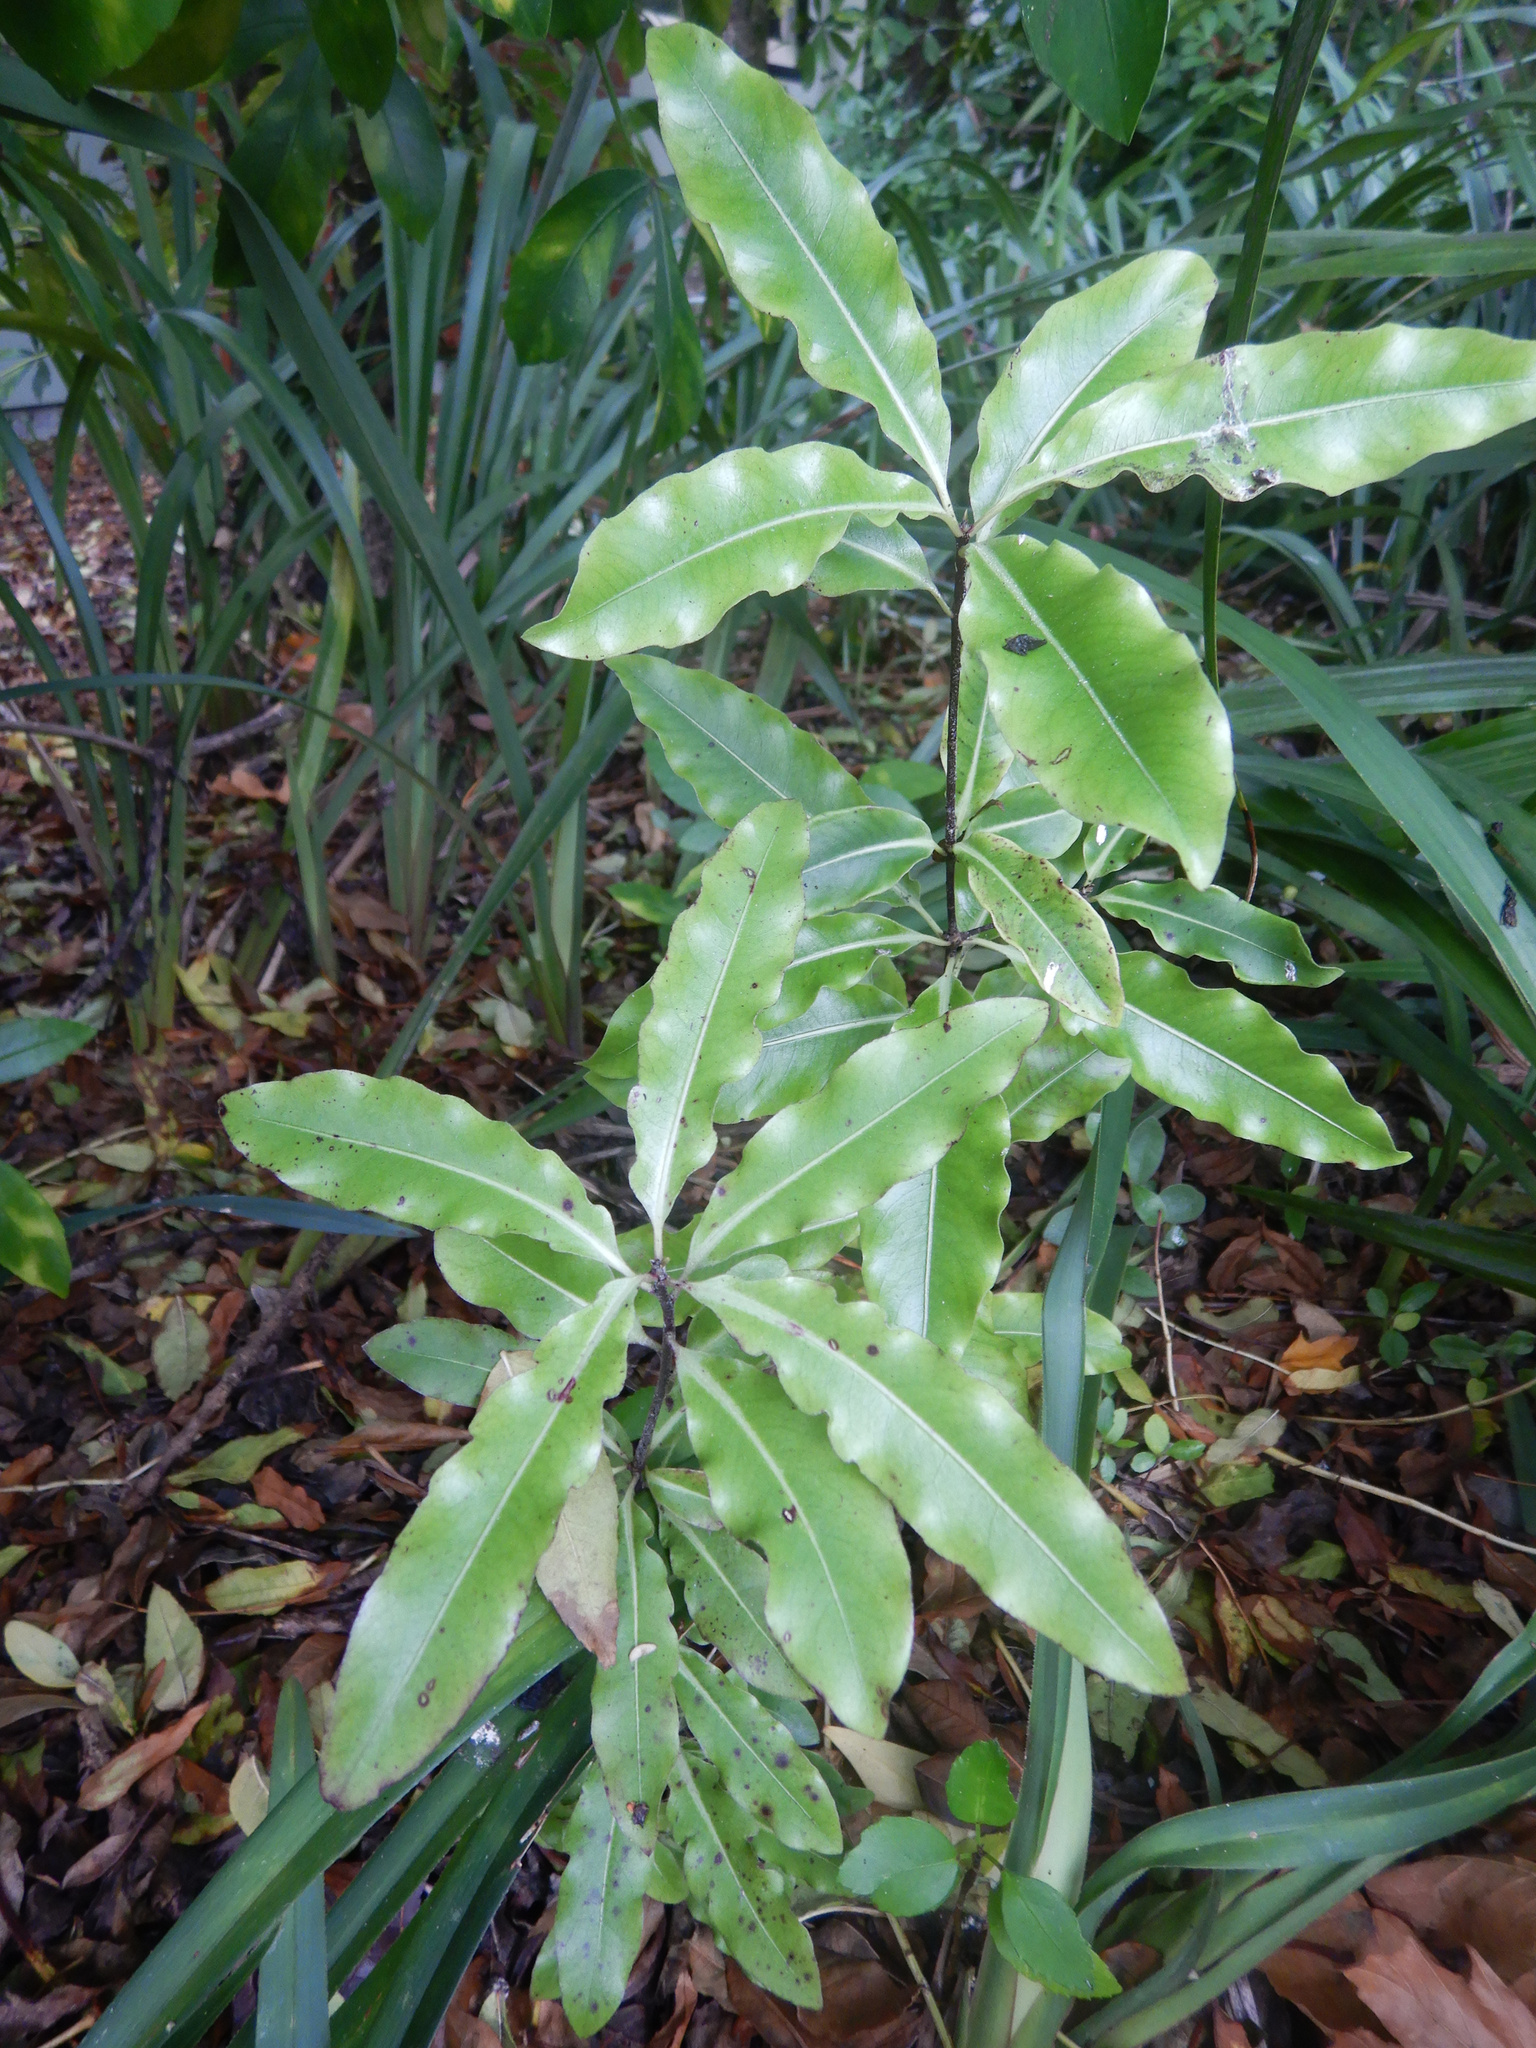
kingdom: Plantae
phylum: Tracheophyta
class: Magnoliopsida
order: Apiales
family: Pittosporaceae
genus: Pittosporum
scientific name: Pittosporum eugenioides
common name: Lemonwood
